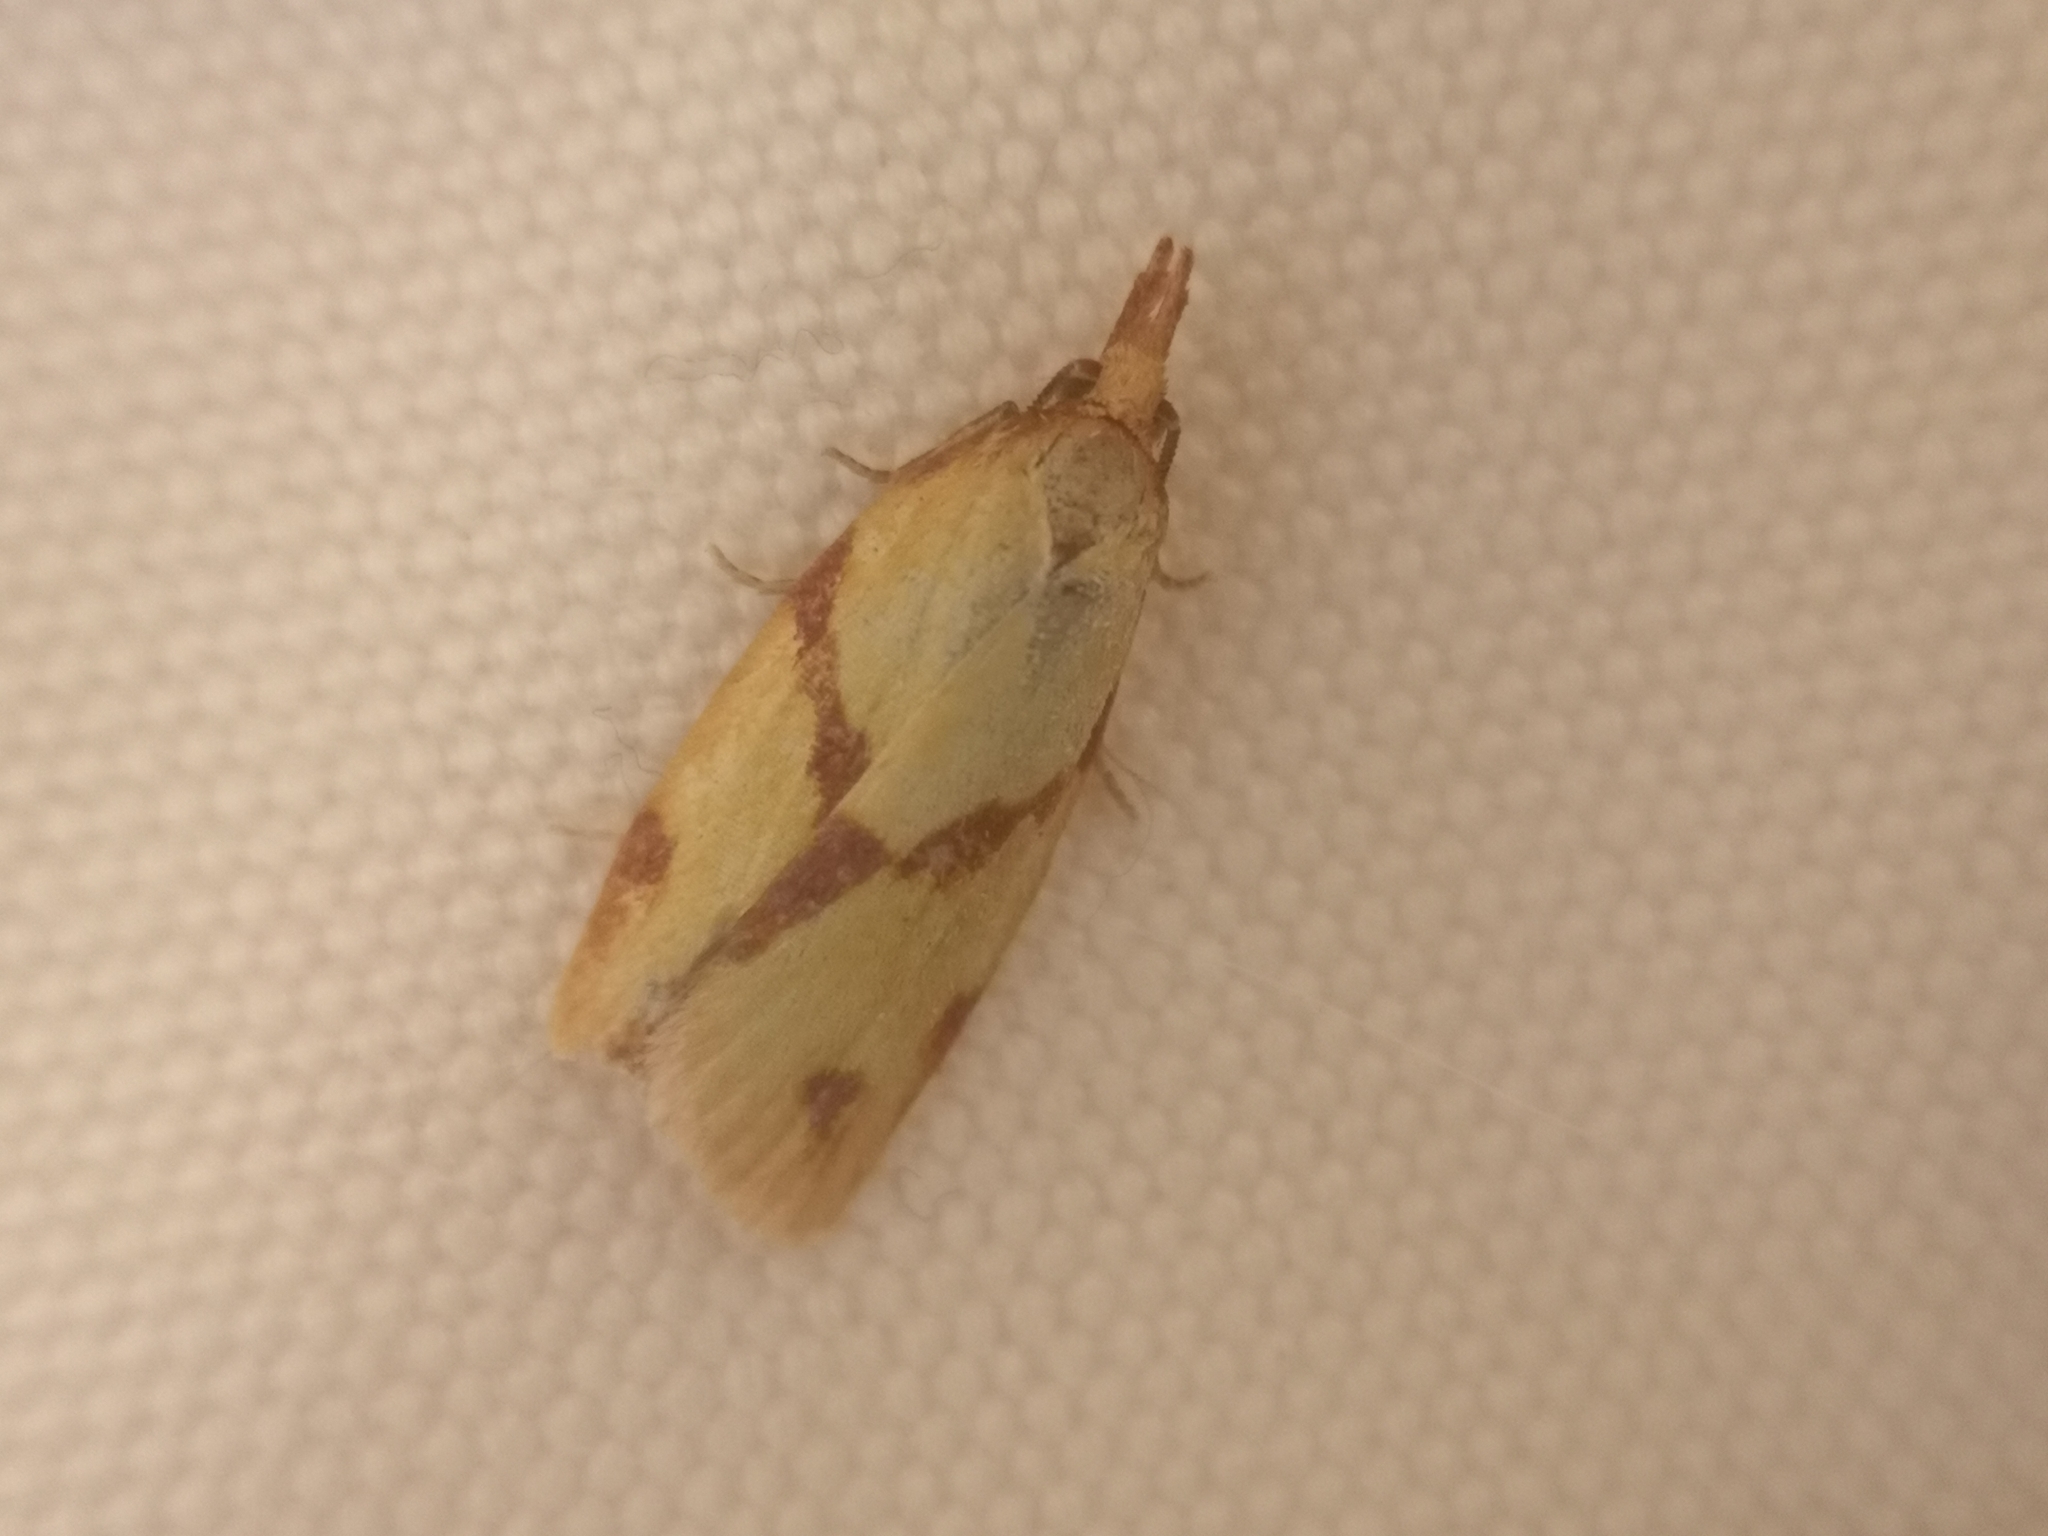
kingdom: Animalia
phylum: Arthropoda
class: Insecta
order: Lepidoptera
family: Tortricidae
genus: Sparganothis
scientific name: Sparganothis unifasciana
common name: One-lined sparganothis moth
